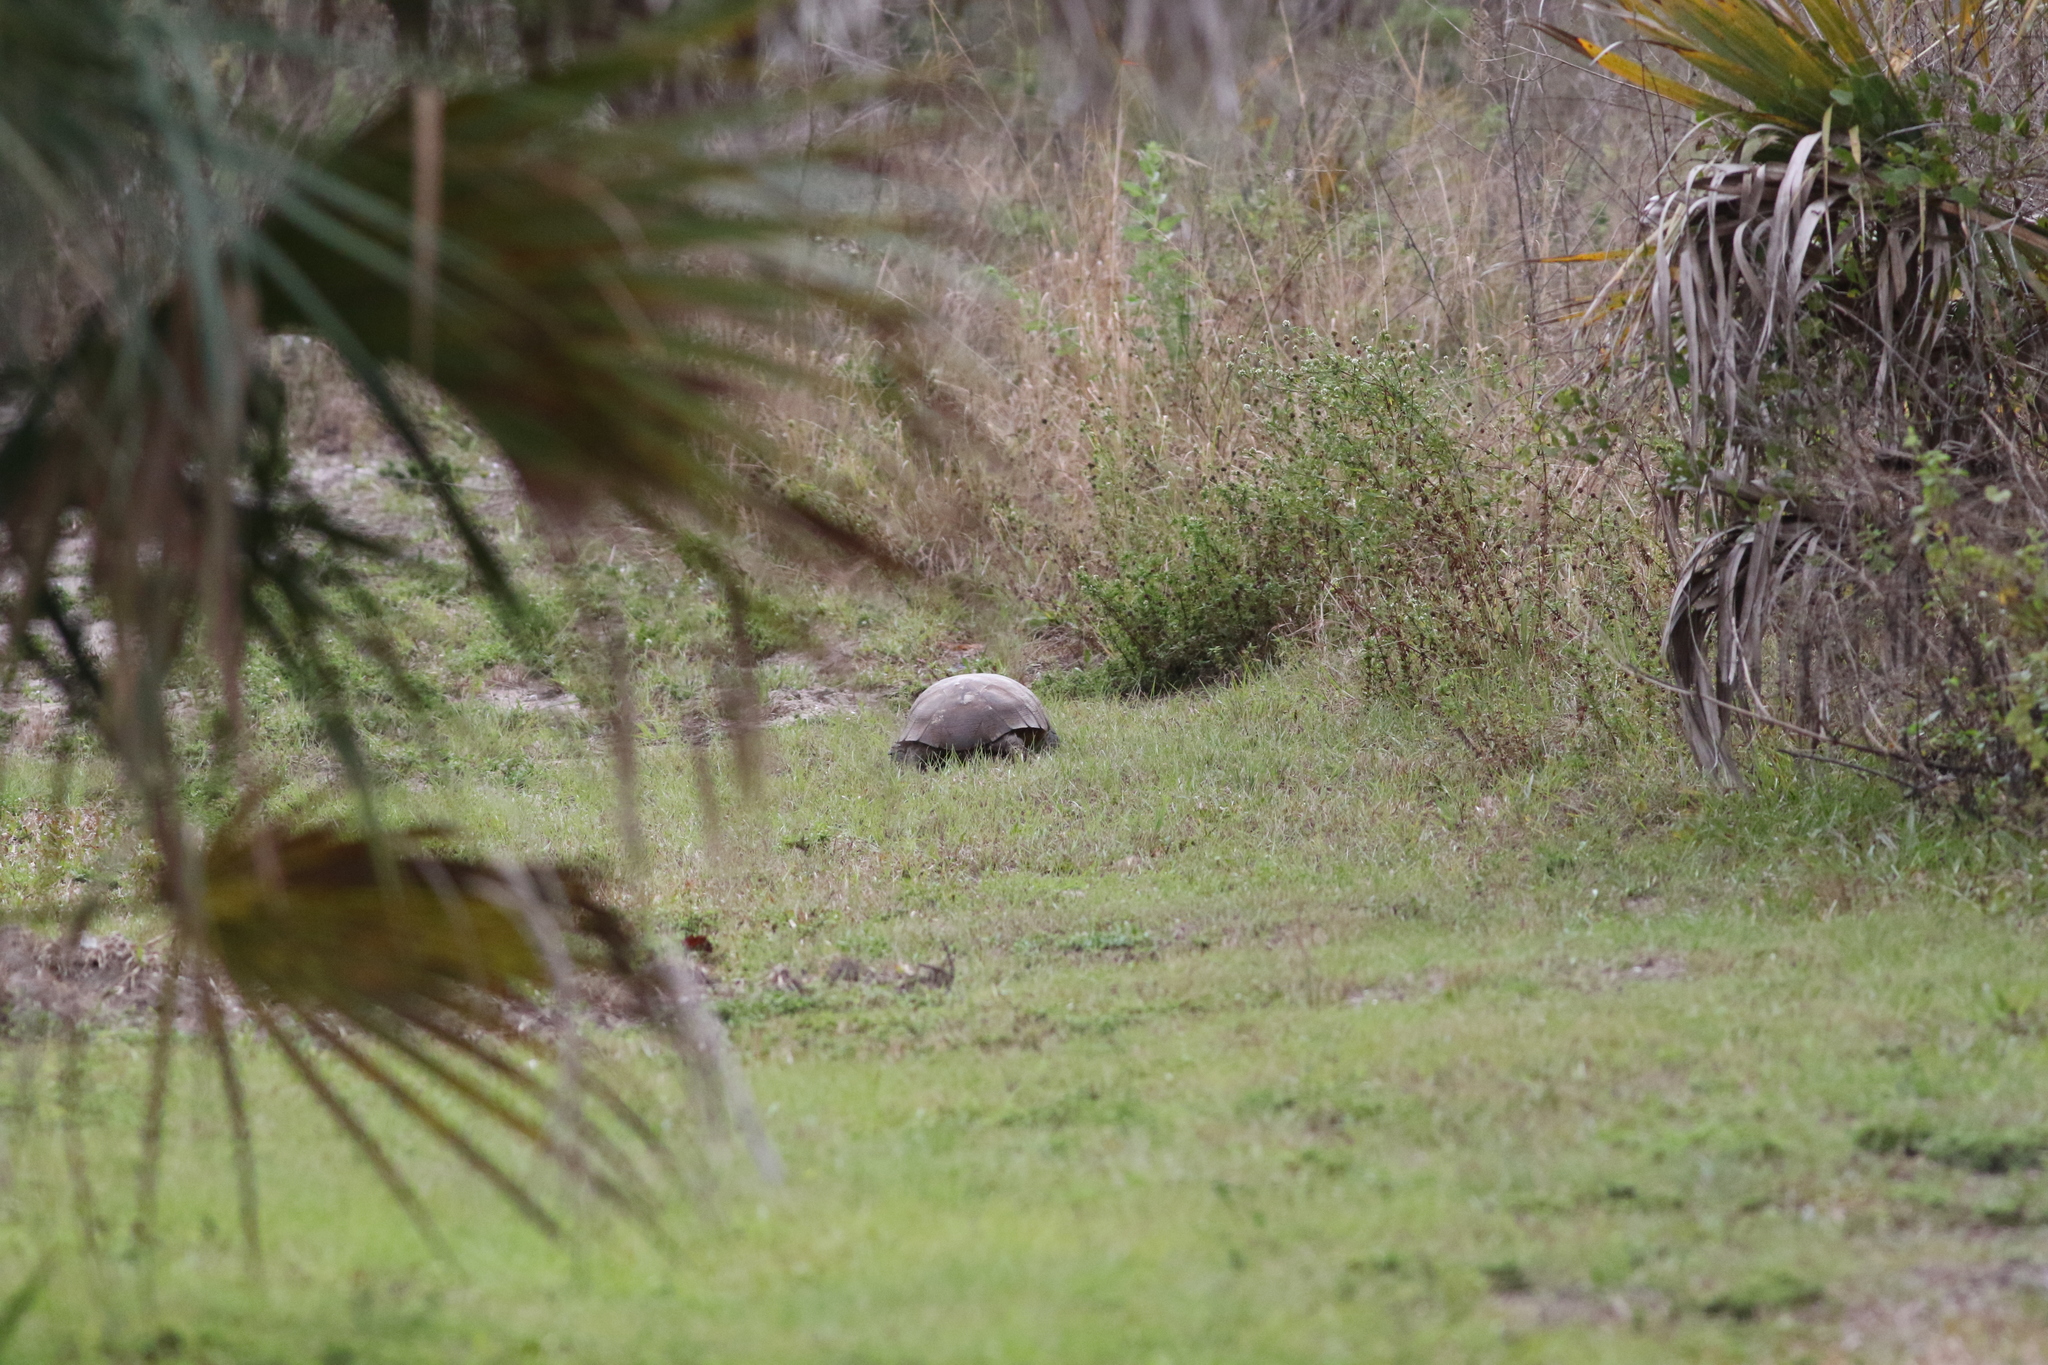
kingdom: Animalia
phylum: Chordata
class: Testudines
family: Testudinidae
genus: Gopherus
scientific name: Gopherus polyphemus
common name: Florida gopher tortoise
